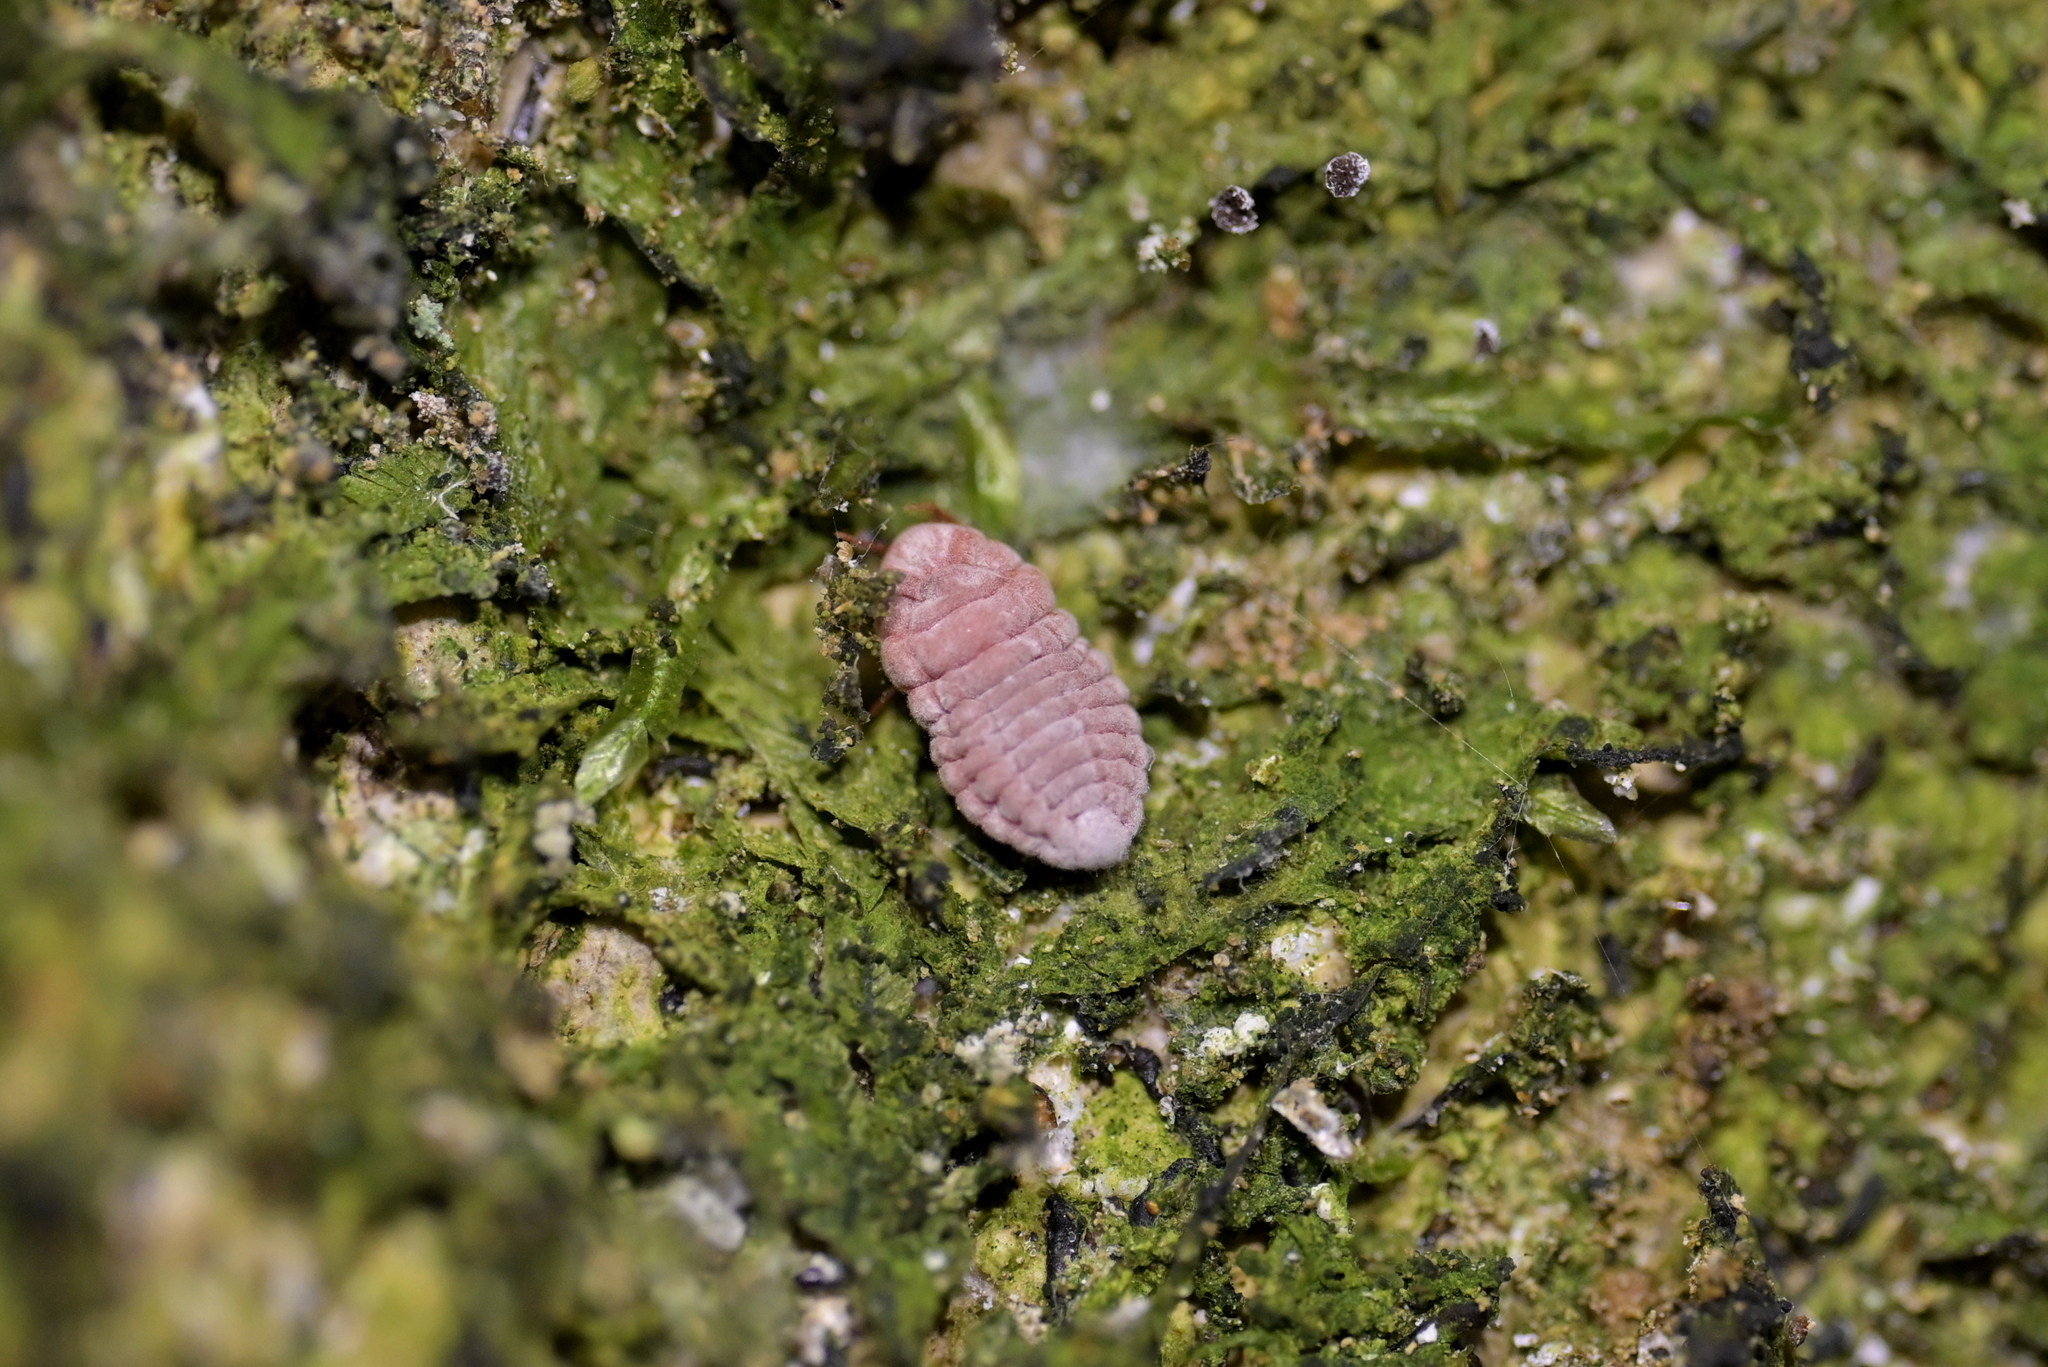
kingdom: Animalia
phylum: Arthropoda
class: Insecta
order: Hemiptera
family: Margarodidae
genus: Coelostomidia
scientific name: Coelostomidia zealandica
